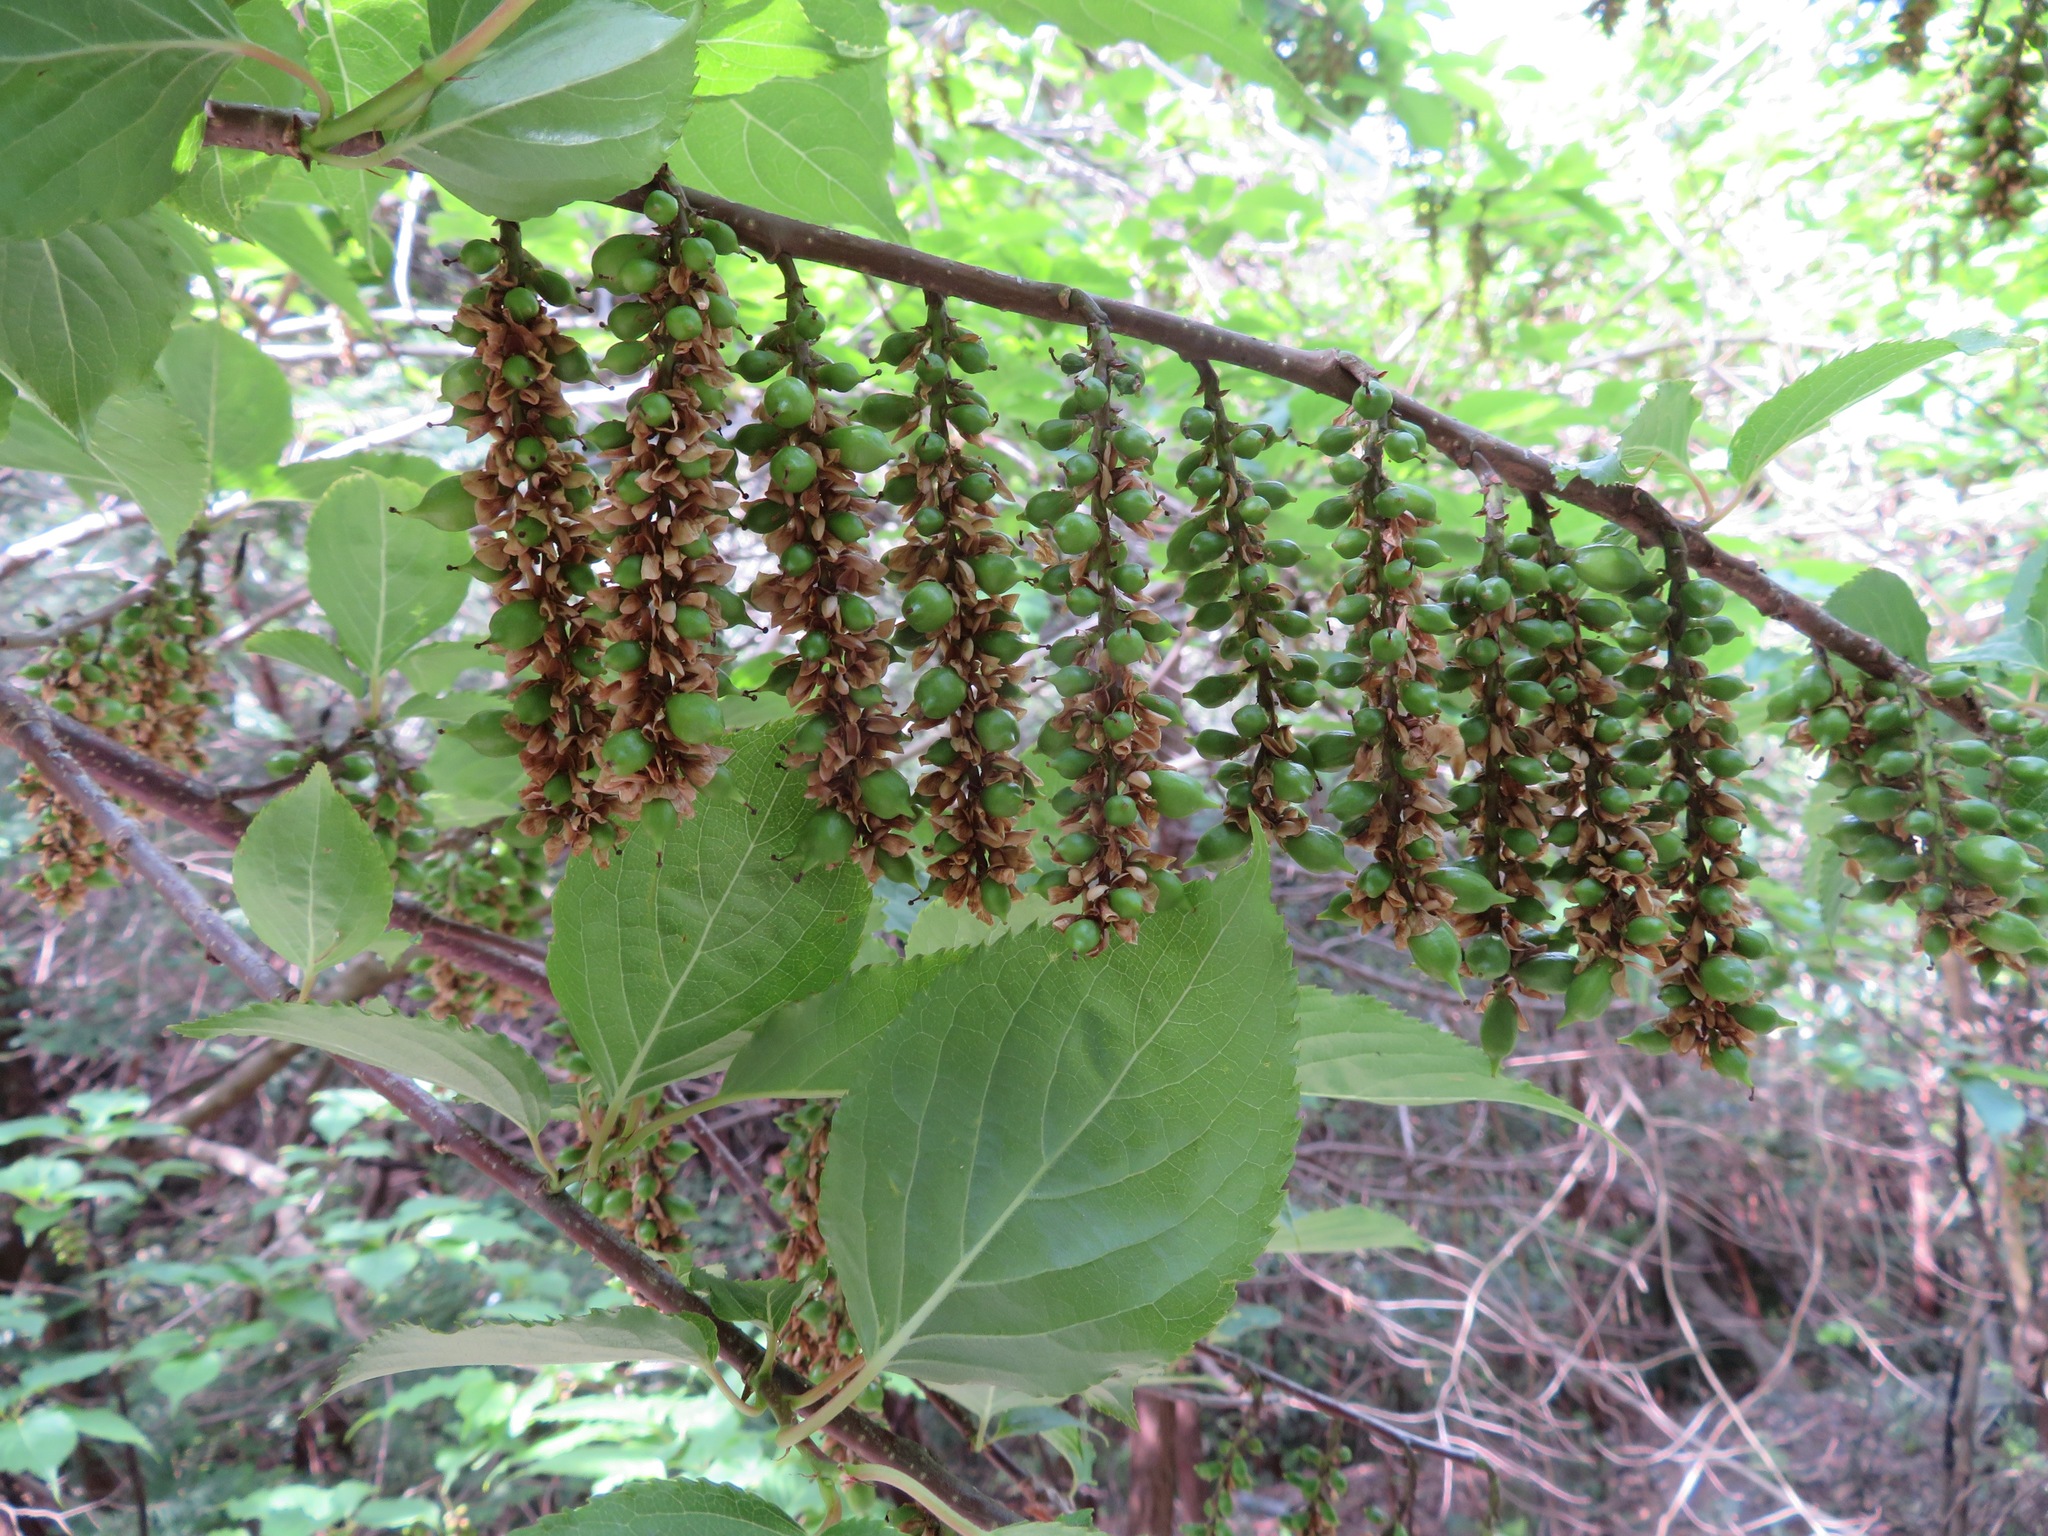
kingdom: Plantae
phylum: Tracheophyta
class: Magnoliopsida
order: Crossosomatales
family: Stachyuraceae
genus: Stachyurus
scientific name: Stachyurus praecox
